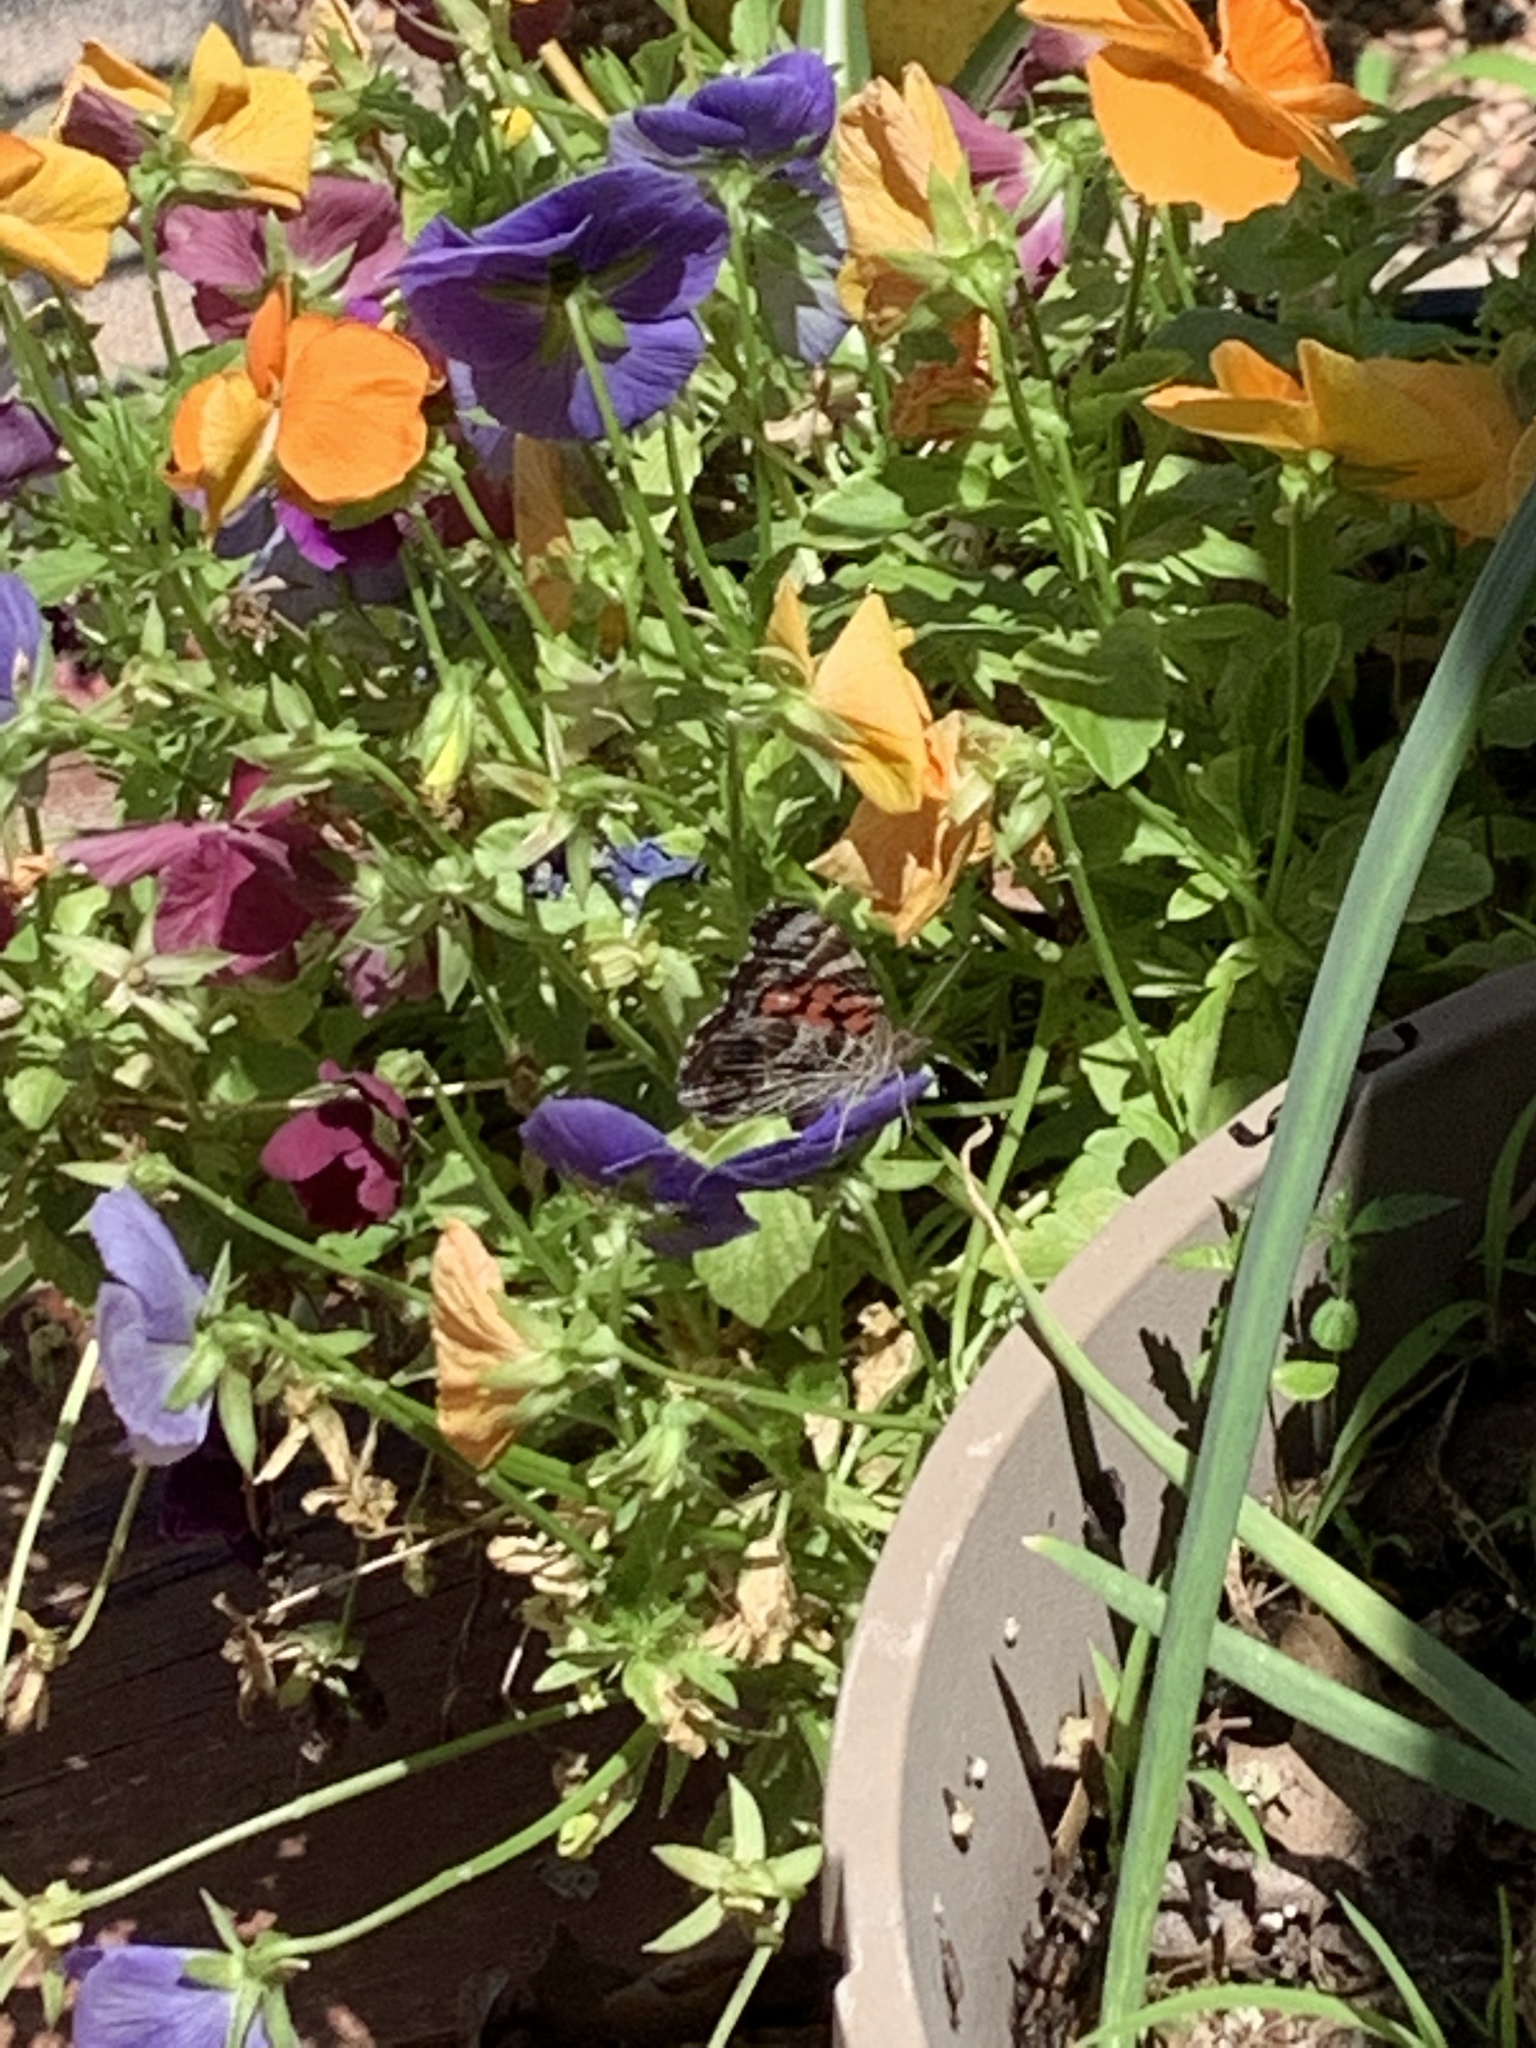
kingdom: Animalia
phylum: Arthropoda
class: Insecta
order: Lepidoptera
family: Nymphalidae
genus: Vanessa
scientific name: Vanessa virginiensis
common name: American lady
